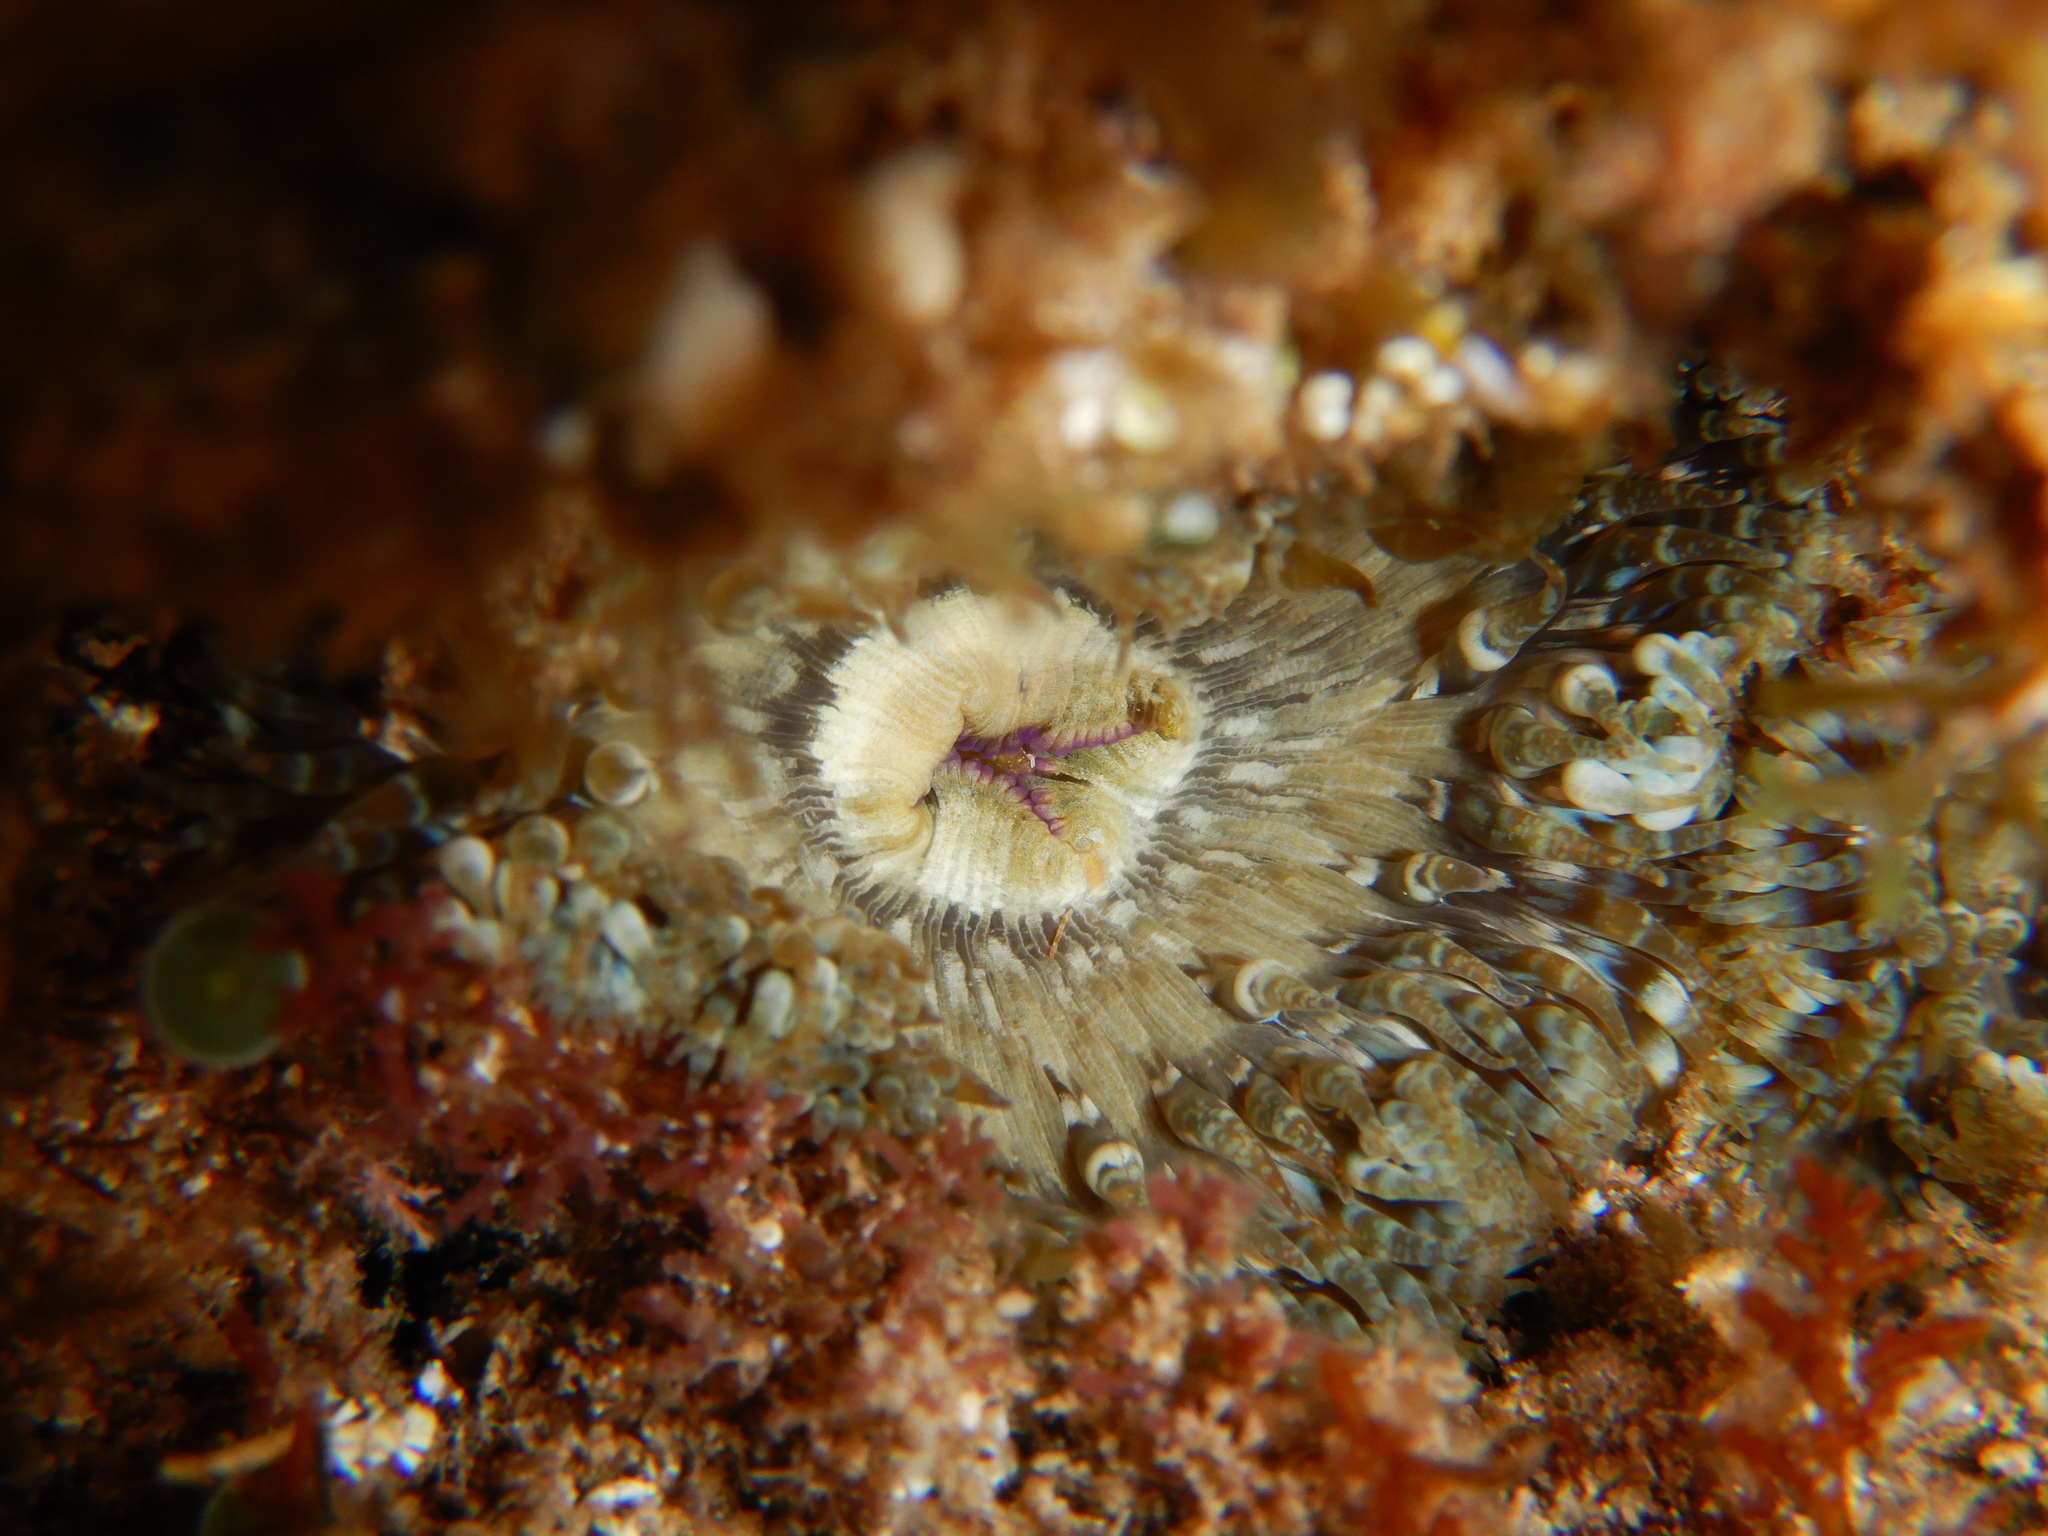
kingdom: Animalia
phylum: Cnidaria
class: Anthozoa
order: Actiniaria
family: Sagartiidae
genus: Cereus
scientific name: Cereus pedunculatus
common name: Daisy anemone
